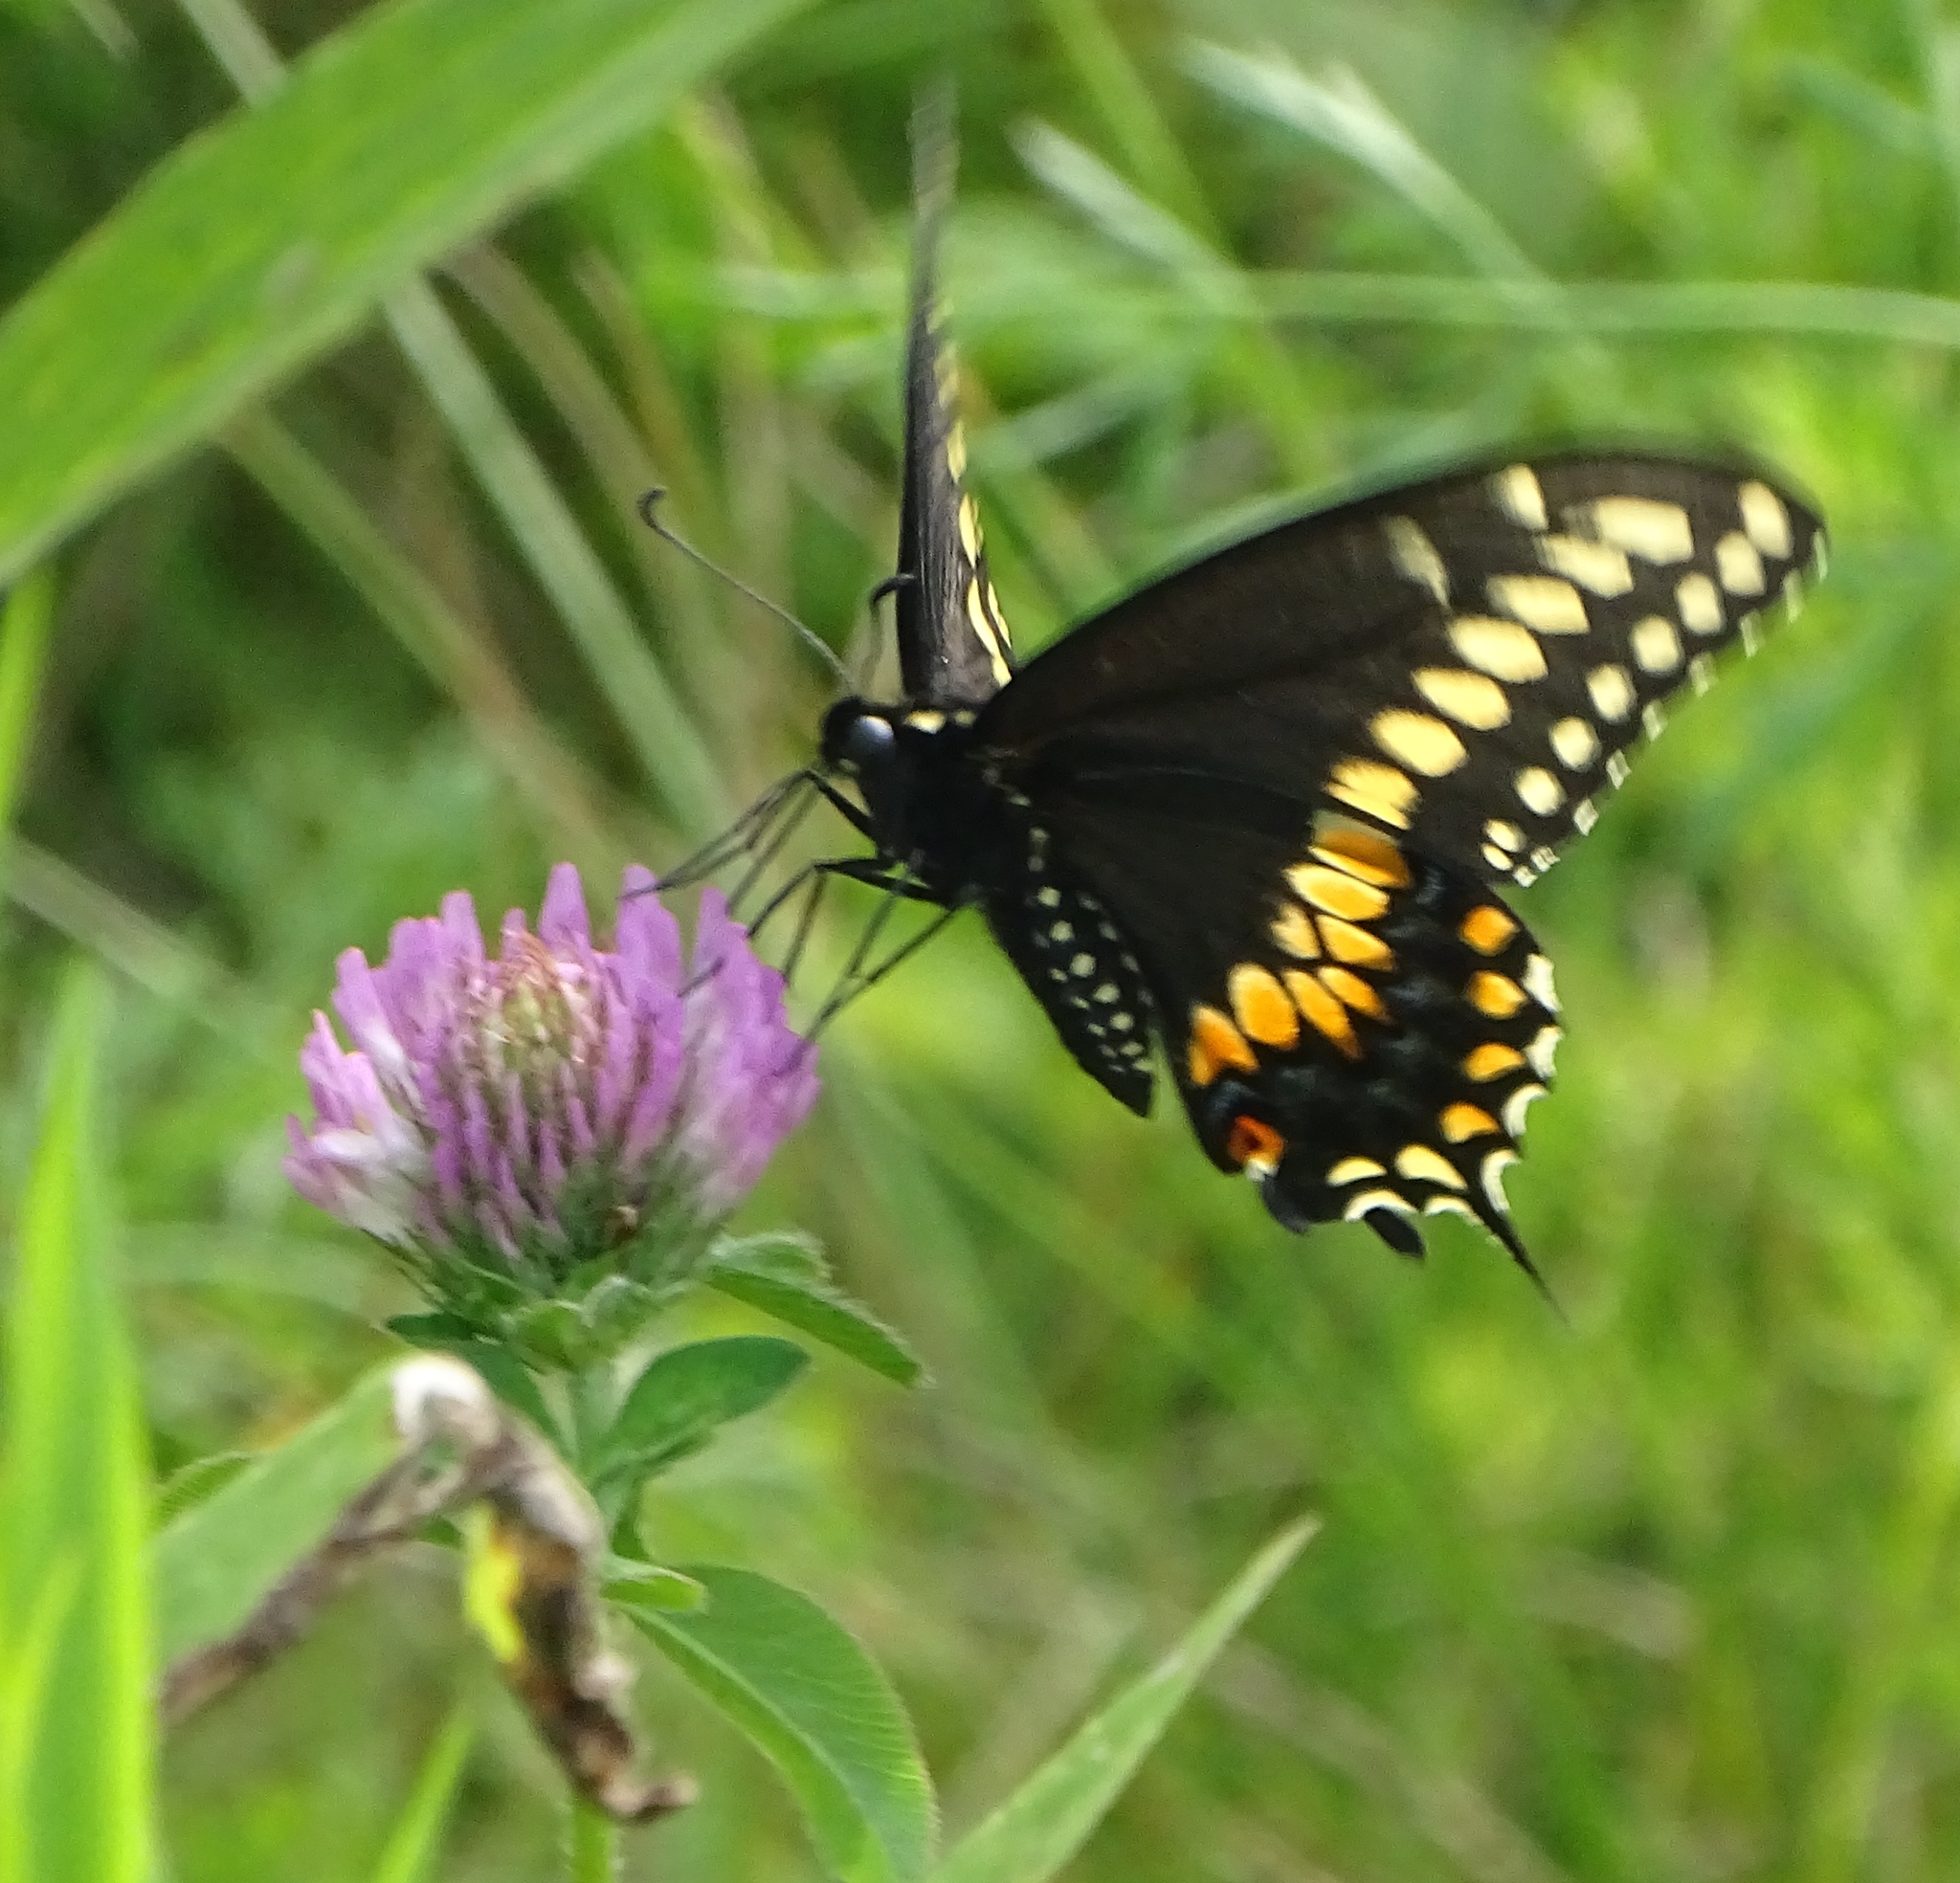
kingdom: Animalia
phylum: Arthropoda
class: Insecta
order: Lepidoptera
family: Papilionidae
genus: Papilio
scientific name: Papilio polyxenes
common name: Black swallowtail
